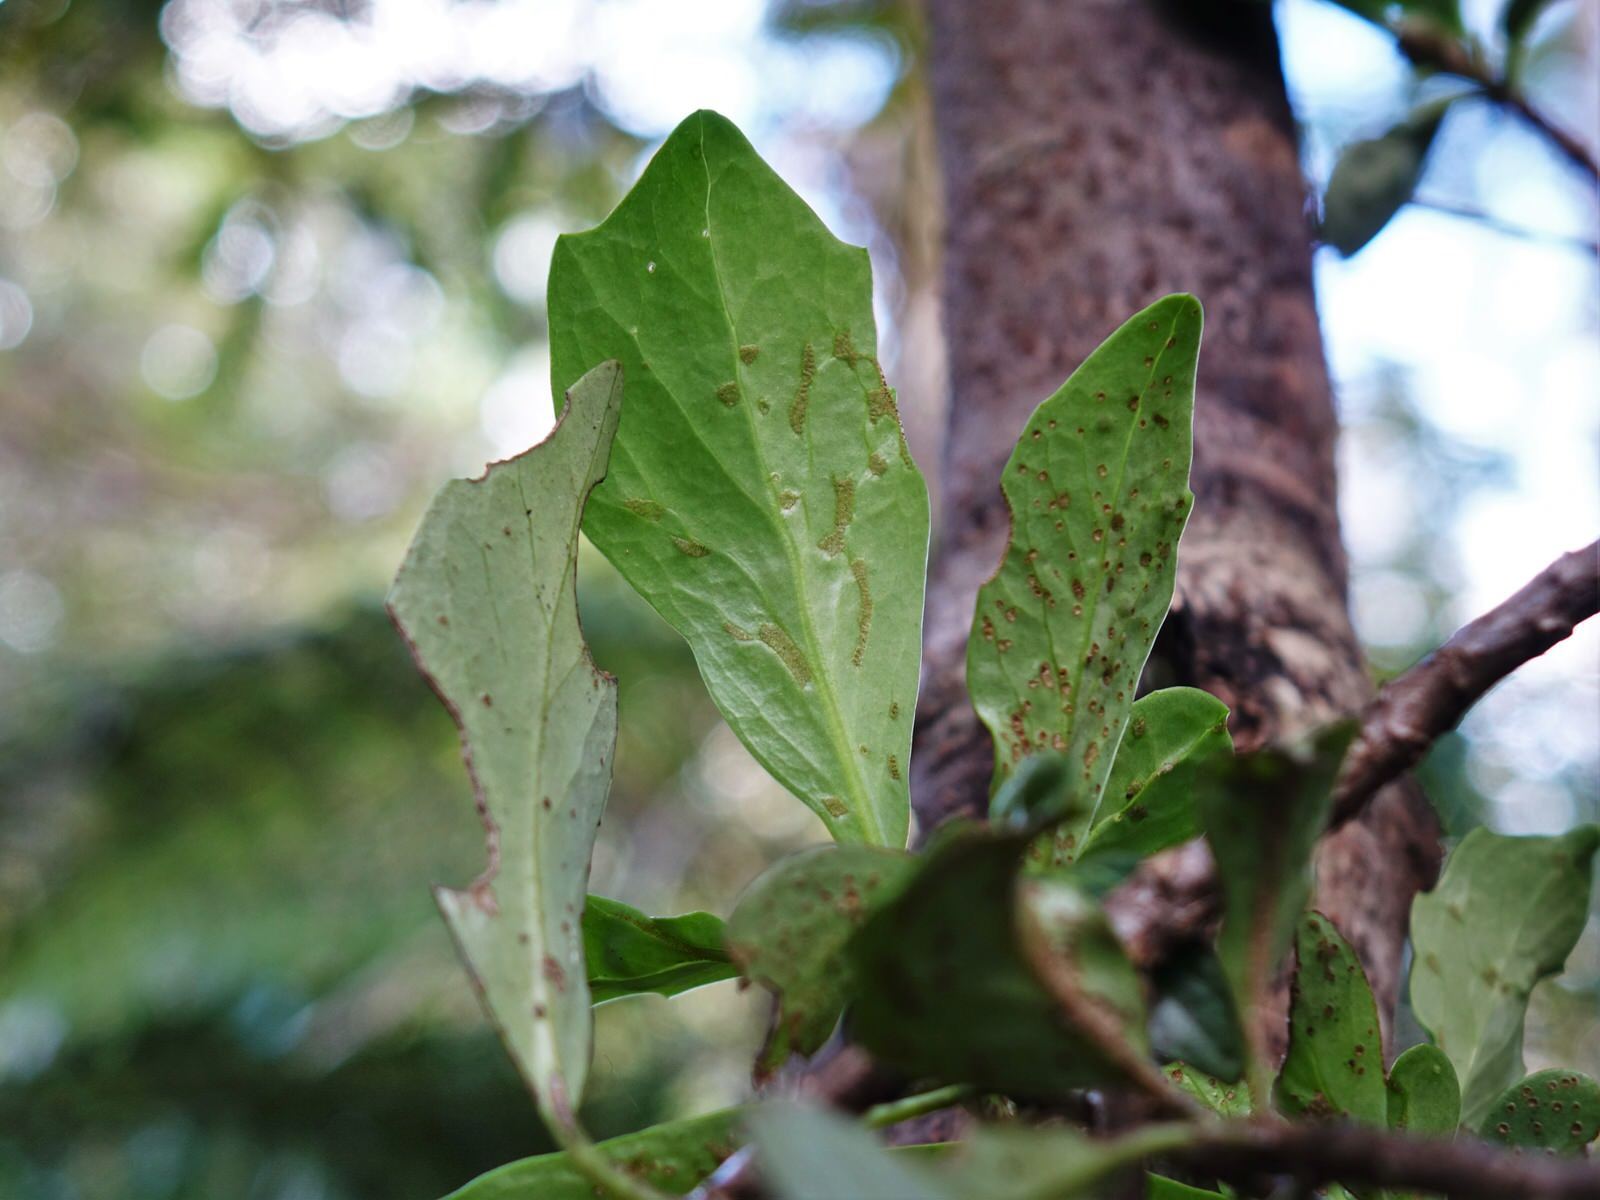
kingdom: Plantae
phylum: Tracheophyta
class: Magnoliopsida
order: Asterales
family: Asteraceae
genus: Brachyglottis
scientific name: Brachyglottis kirkii
